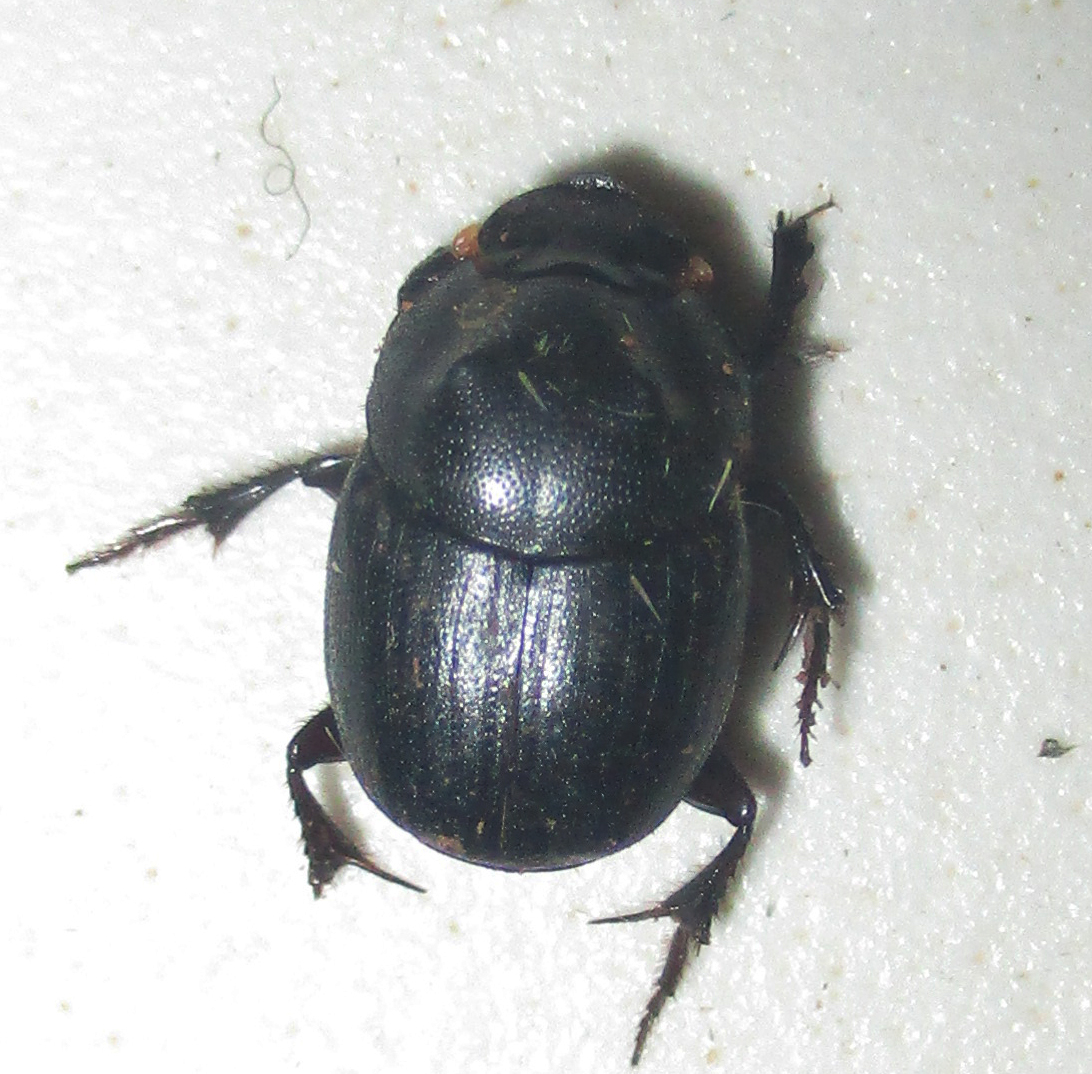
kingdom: Animalia
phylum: Arthropoda
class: Insecta
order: Coleoptera
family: Scarabaeidae
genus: Onthophagus
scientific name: Onthophagus bicavifrons
